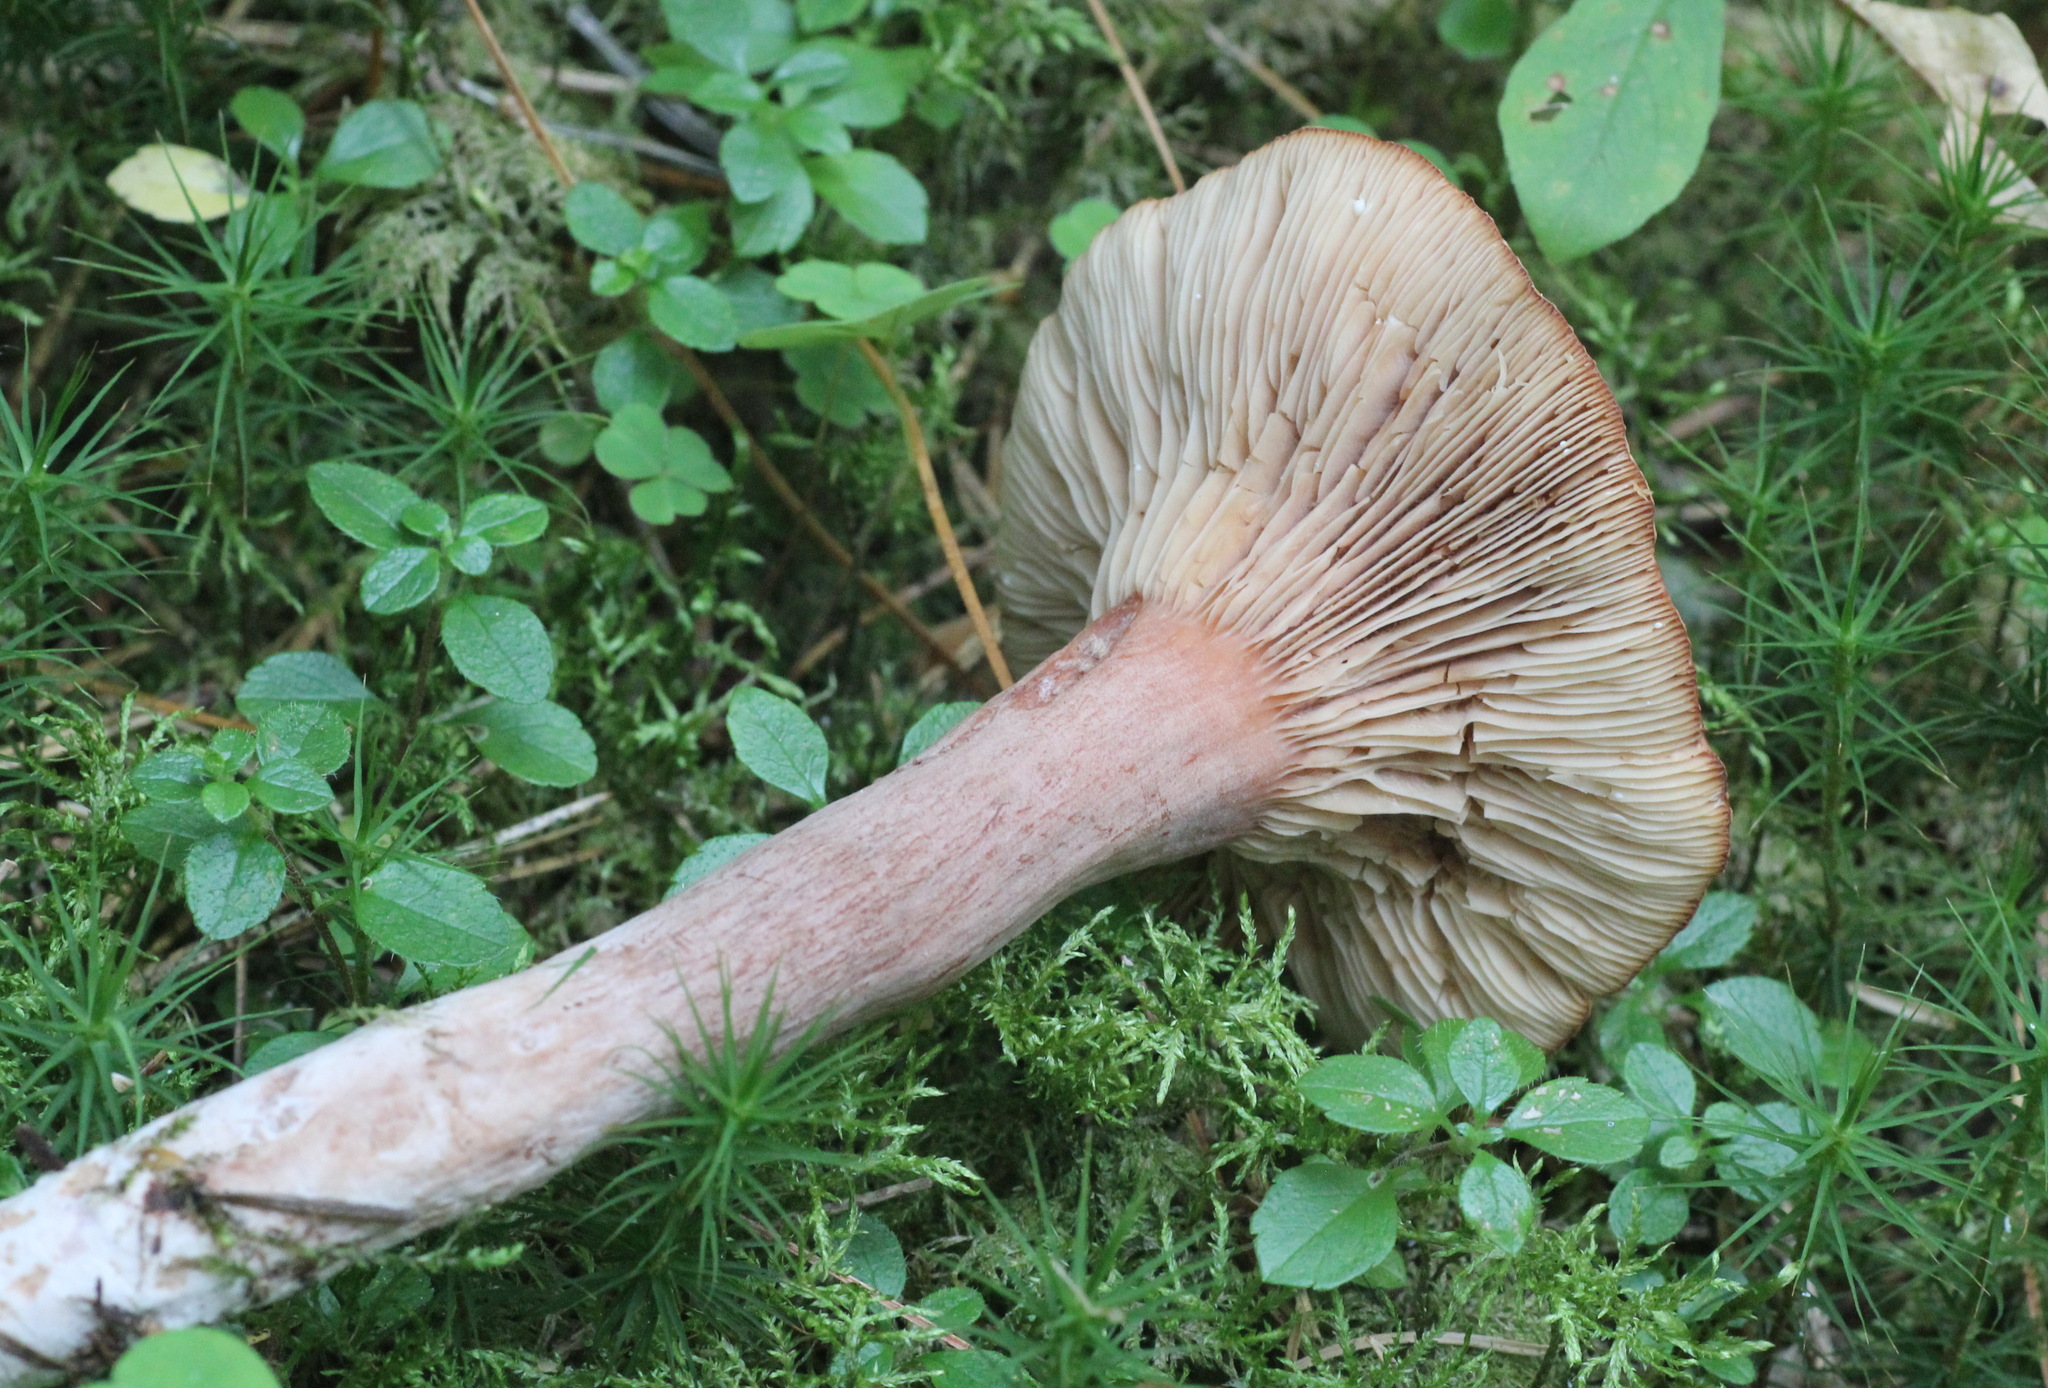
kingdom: Fungi
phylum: Basidiomycota
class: Agaricomycetes
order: Russulales
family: Russulaceae
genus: Lactarius
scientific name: Lactarius rufus
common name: Rufous milk-cap
